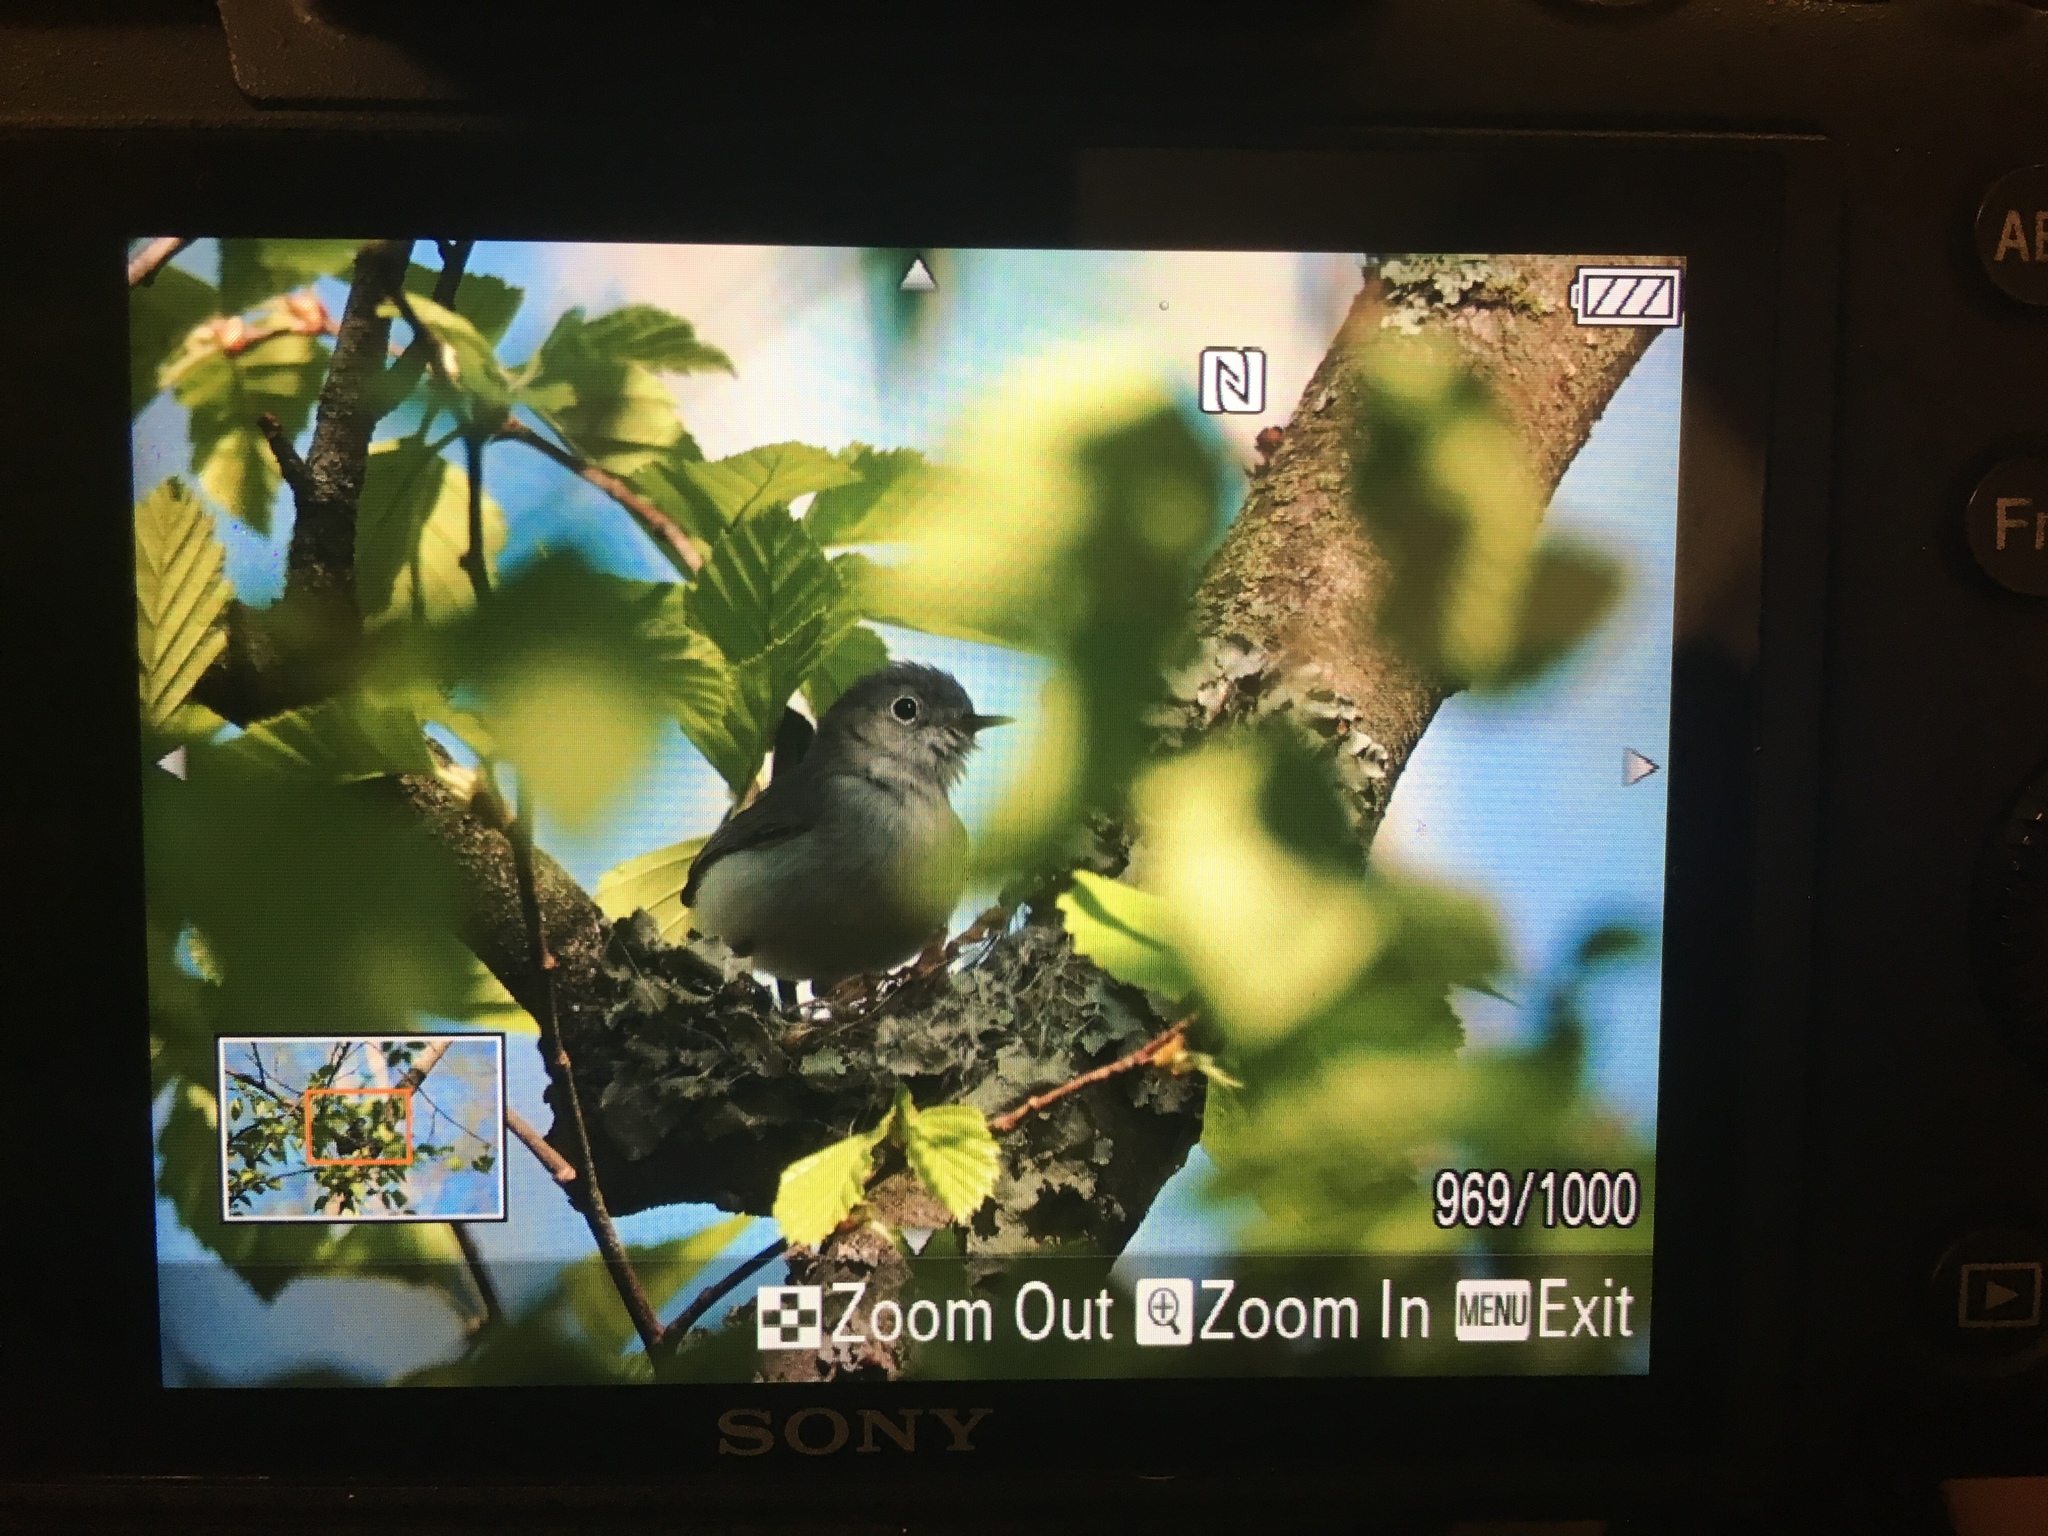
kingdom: Animalia
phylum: Chordata
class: Aves
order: Passeriformes
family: Polioptilidae
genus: Polioptila
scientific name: Polioptila caerulea
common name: Blue-gray gnatcatcher
